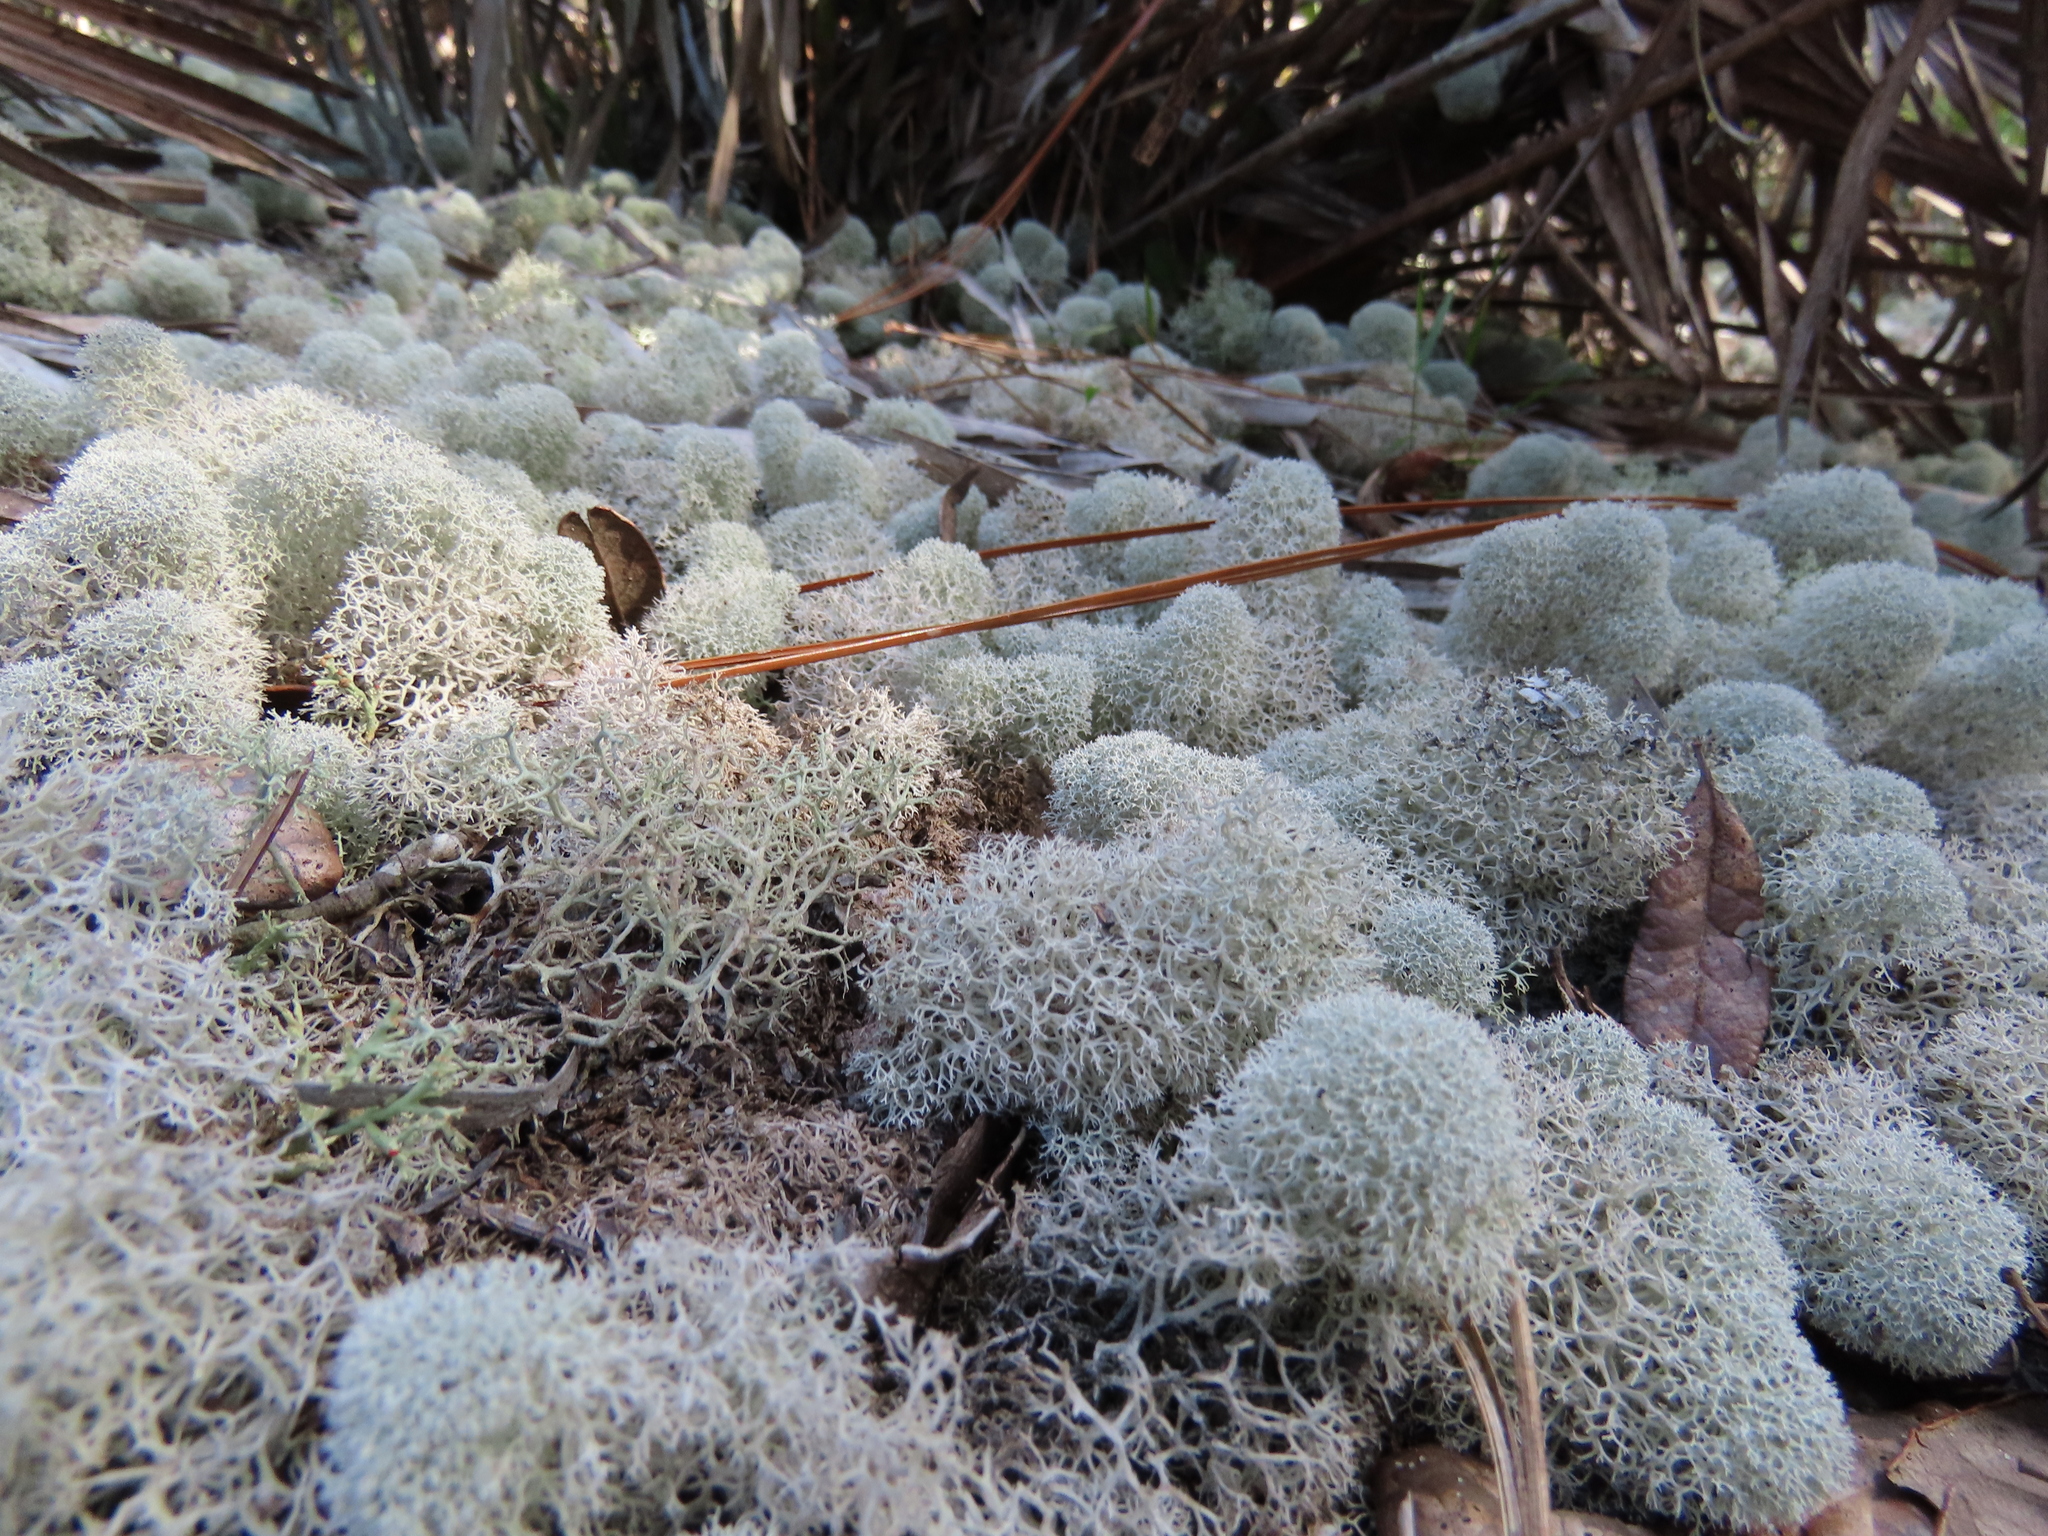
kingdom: Fungi
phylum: Ascomycota
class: Lecanoromycetes
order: Lecanorales
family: Cladoniaceae
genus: Cladonia
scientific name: Cladonia evansii
